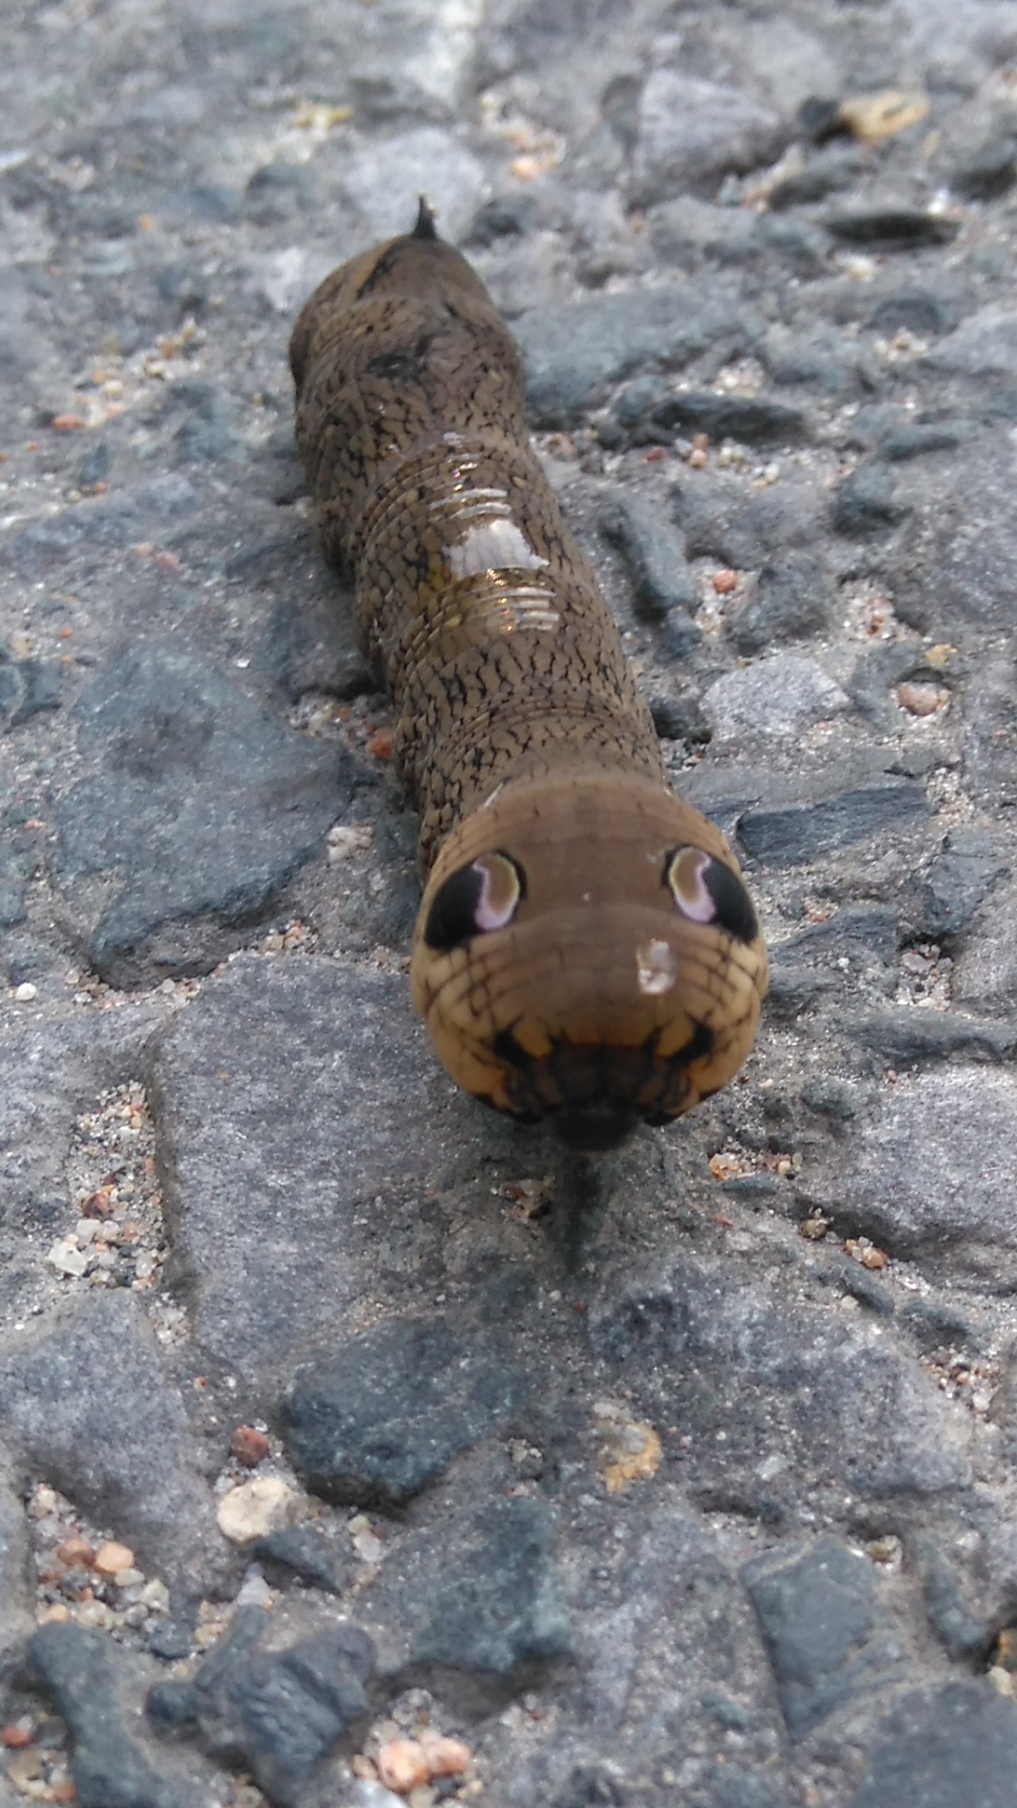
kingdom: Animalia
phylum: Arthropoda
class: Insecta
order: Lepidoptera
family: Sphingidae
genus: Deilephila
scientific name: Deilephila elpenor
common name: Elephant hawk-moth
